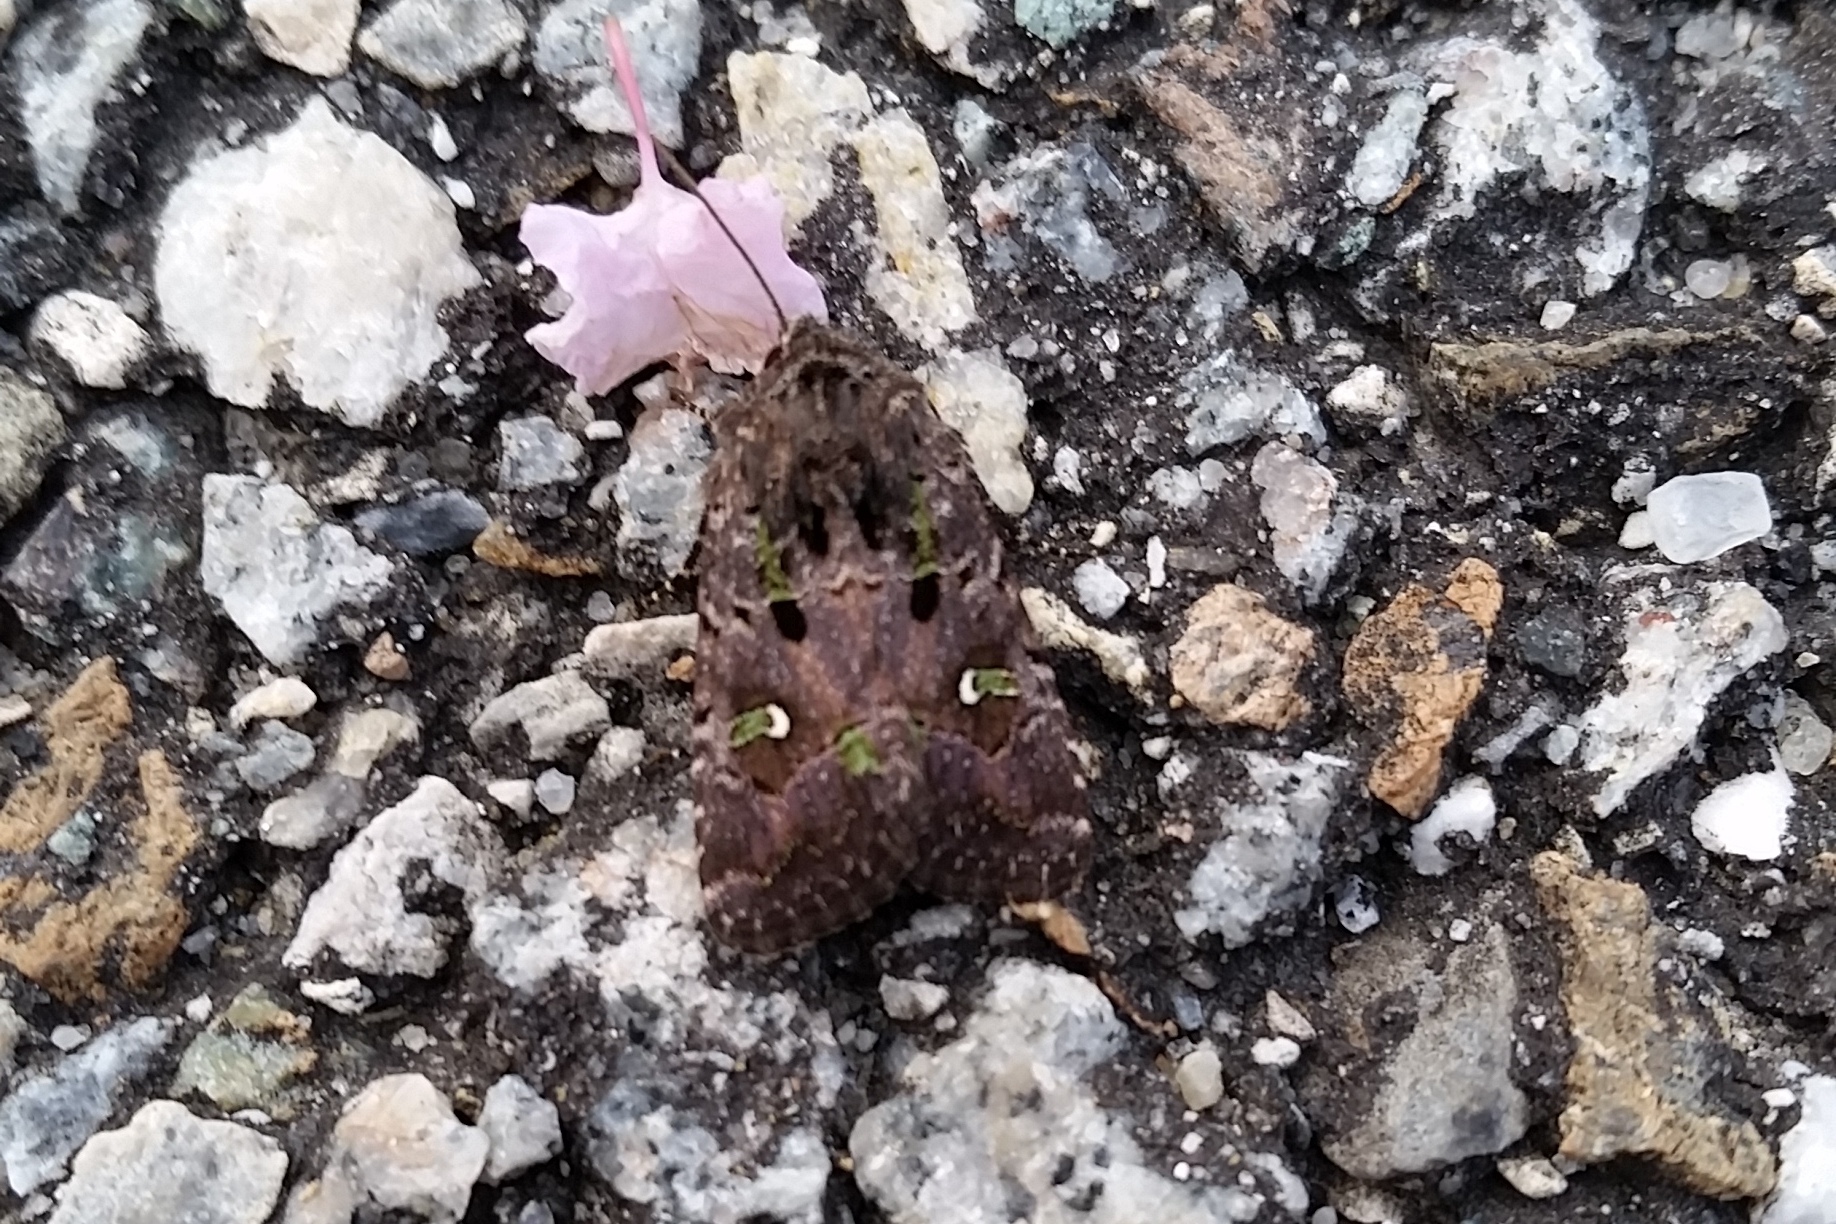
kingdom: Animalia
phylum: Arthropoda
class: Insecta
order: Lepidoptera
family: Noctuidae
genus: Lacinipolia
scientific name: Lacinipolia renigera
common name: Kidney-spotted minor
